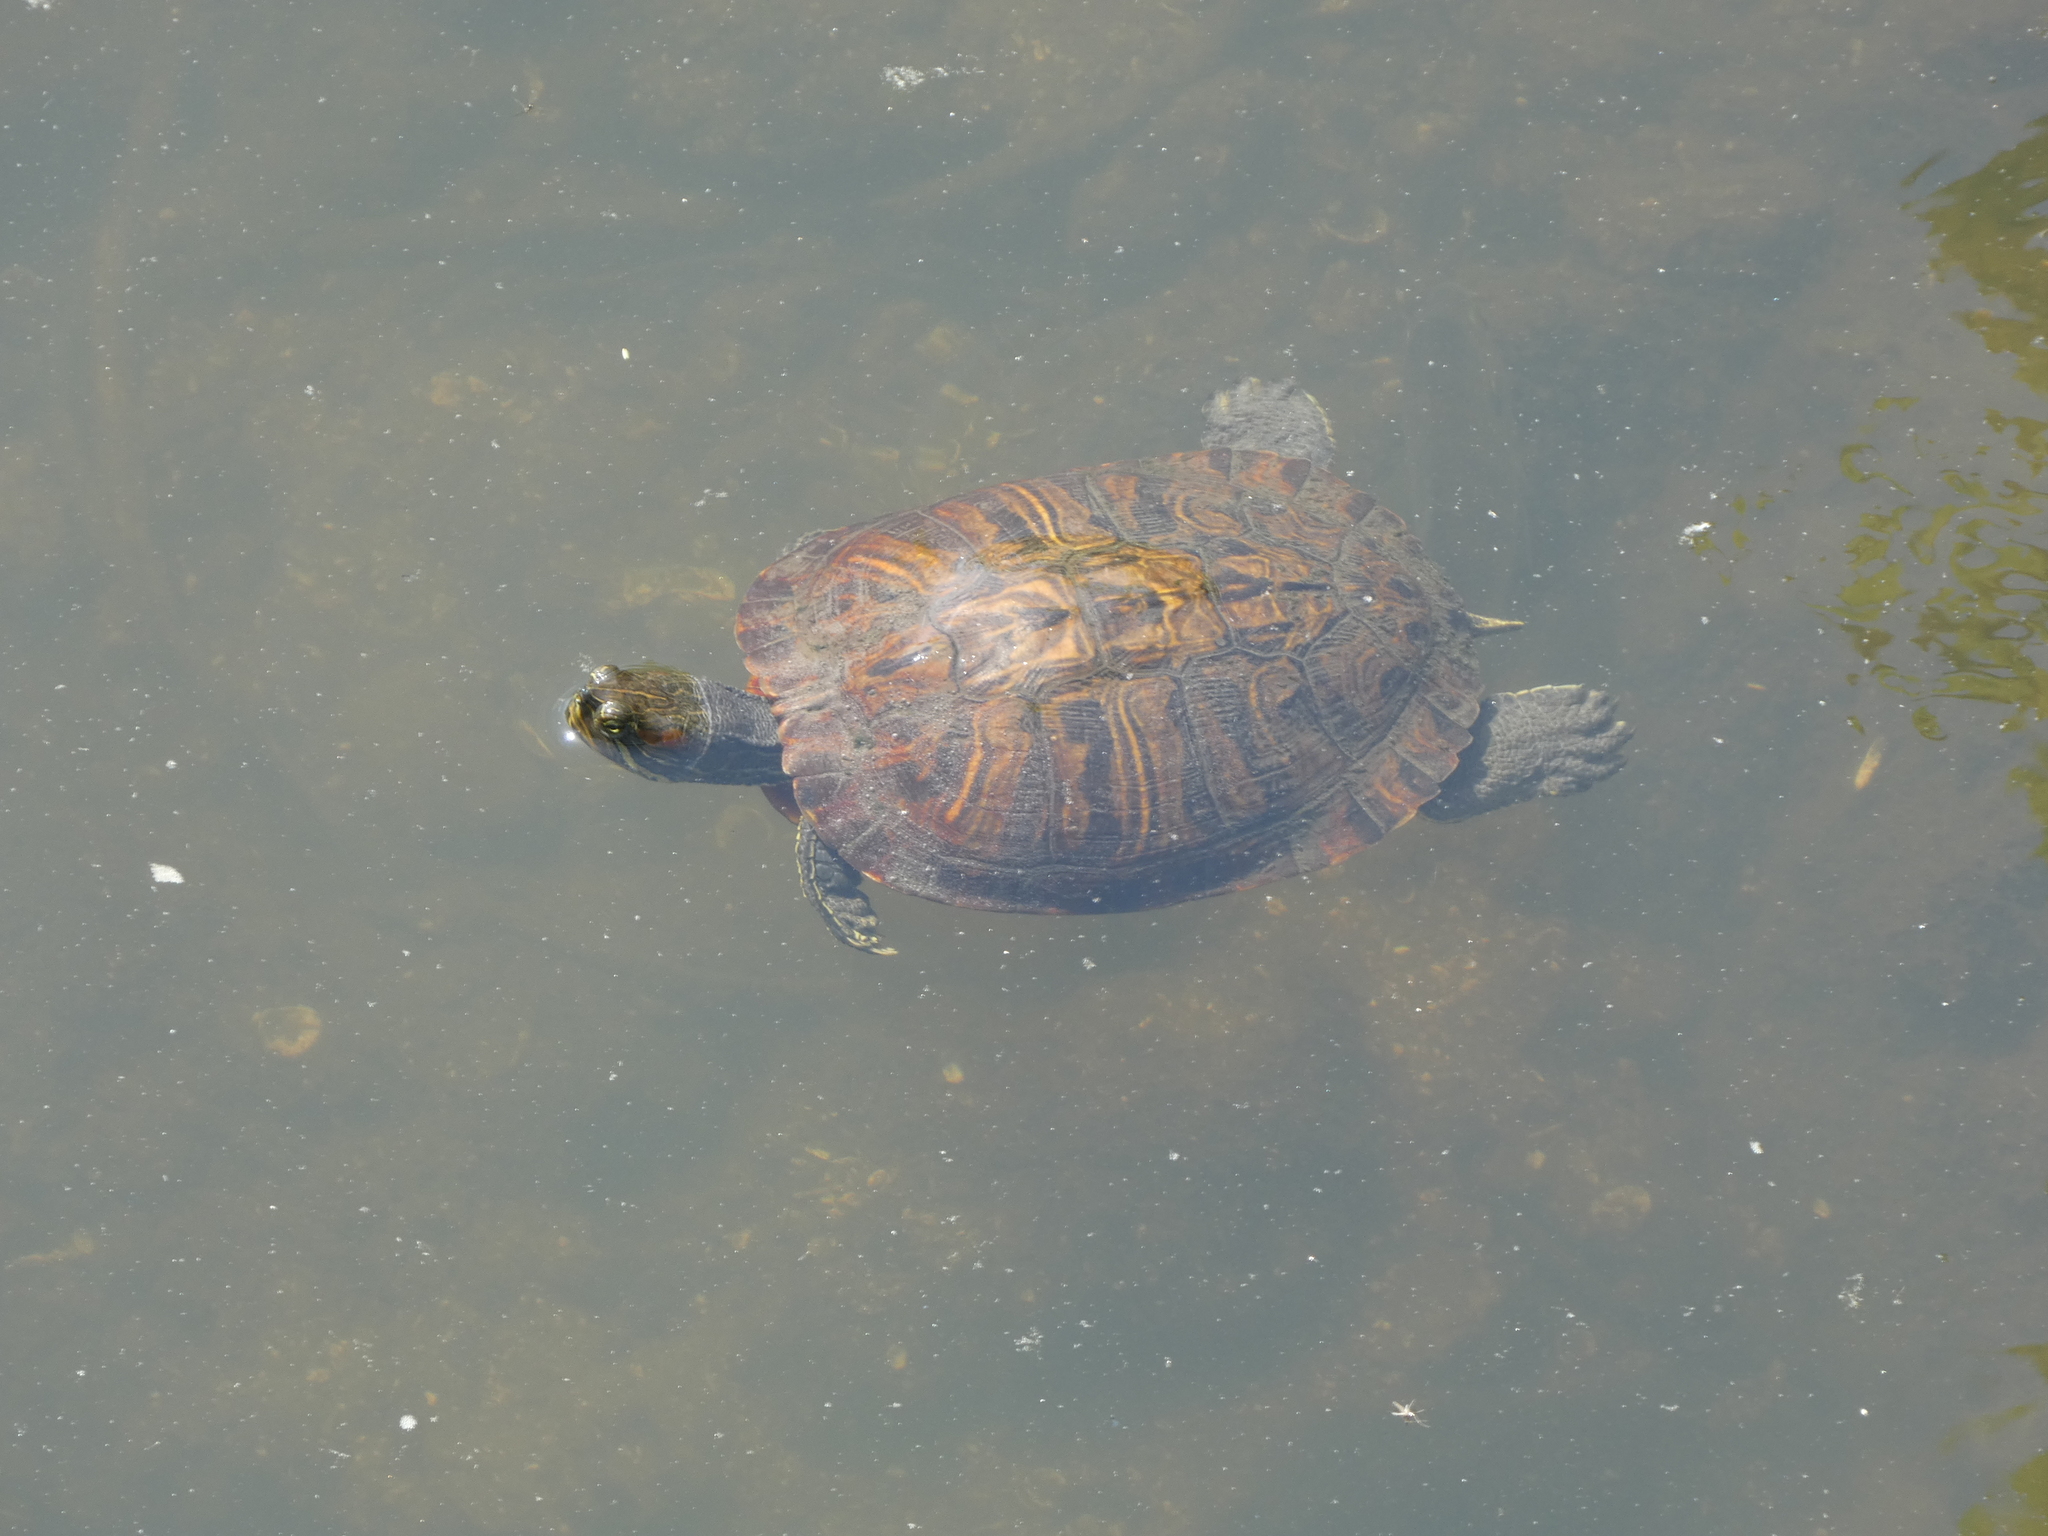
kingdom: Animalia
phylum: Chordata
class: Testudines
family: Emydidae
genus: Trachemys
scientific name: Trachemys scripta
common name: Slider
